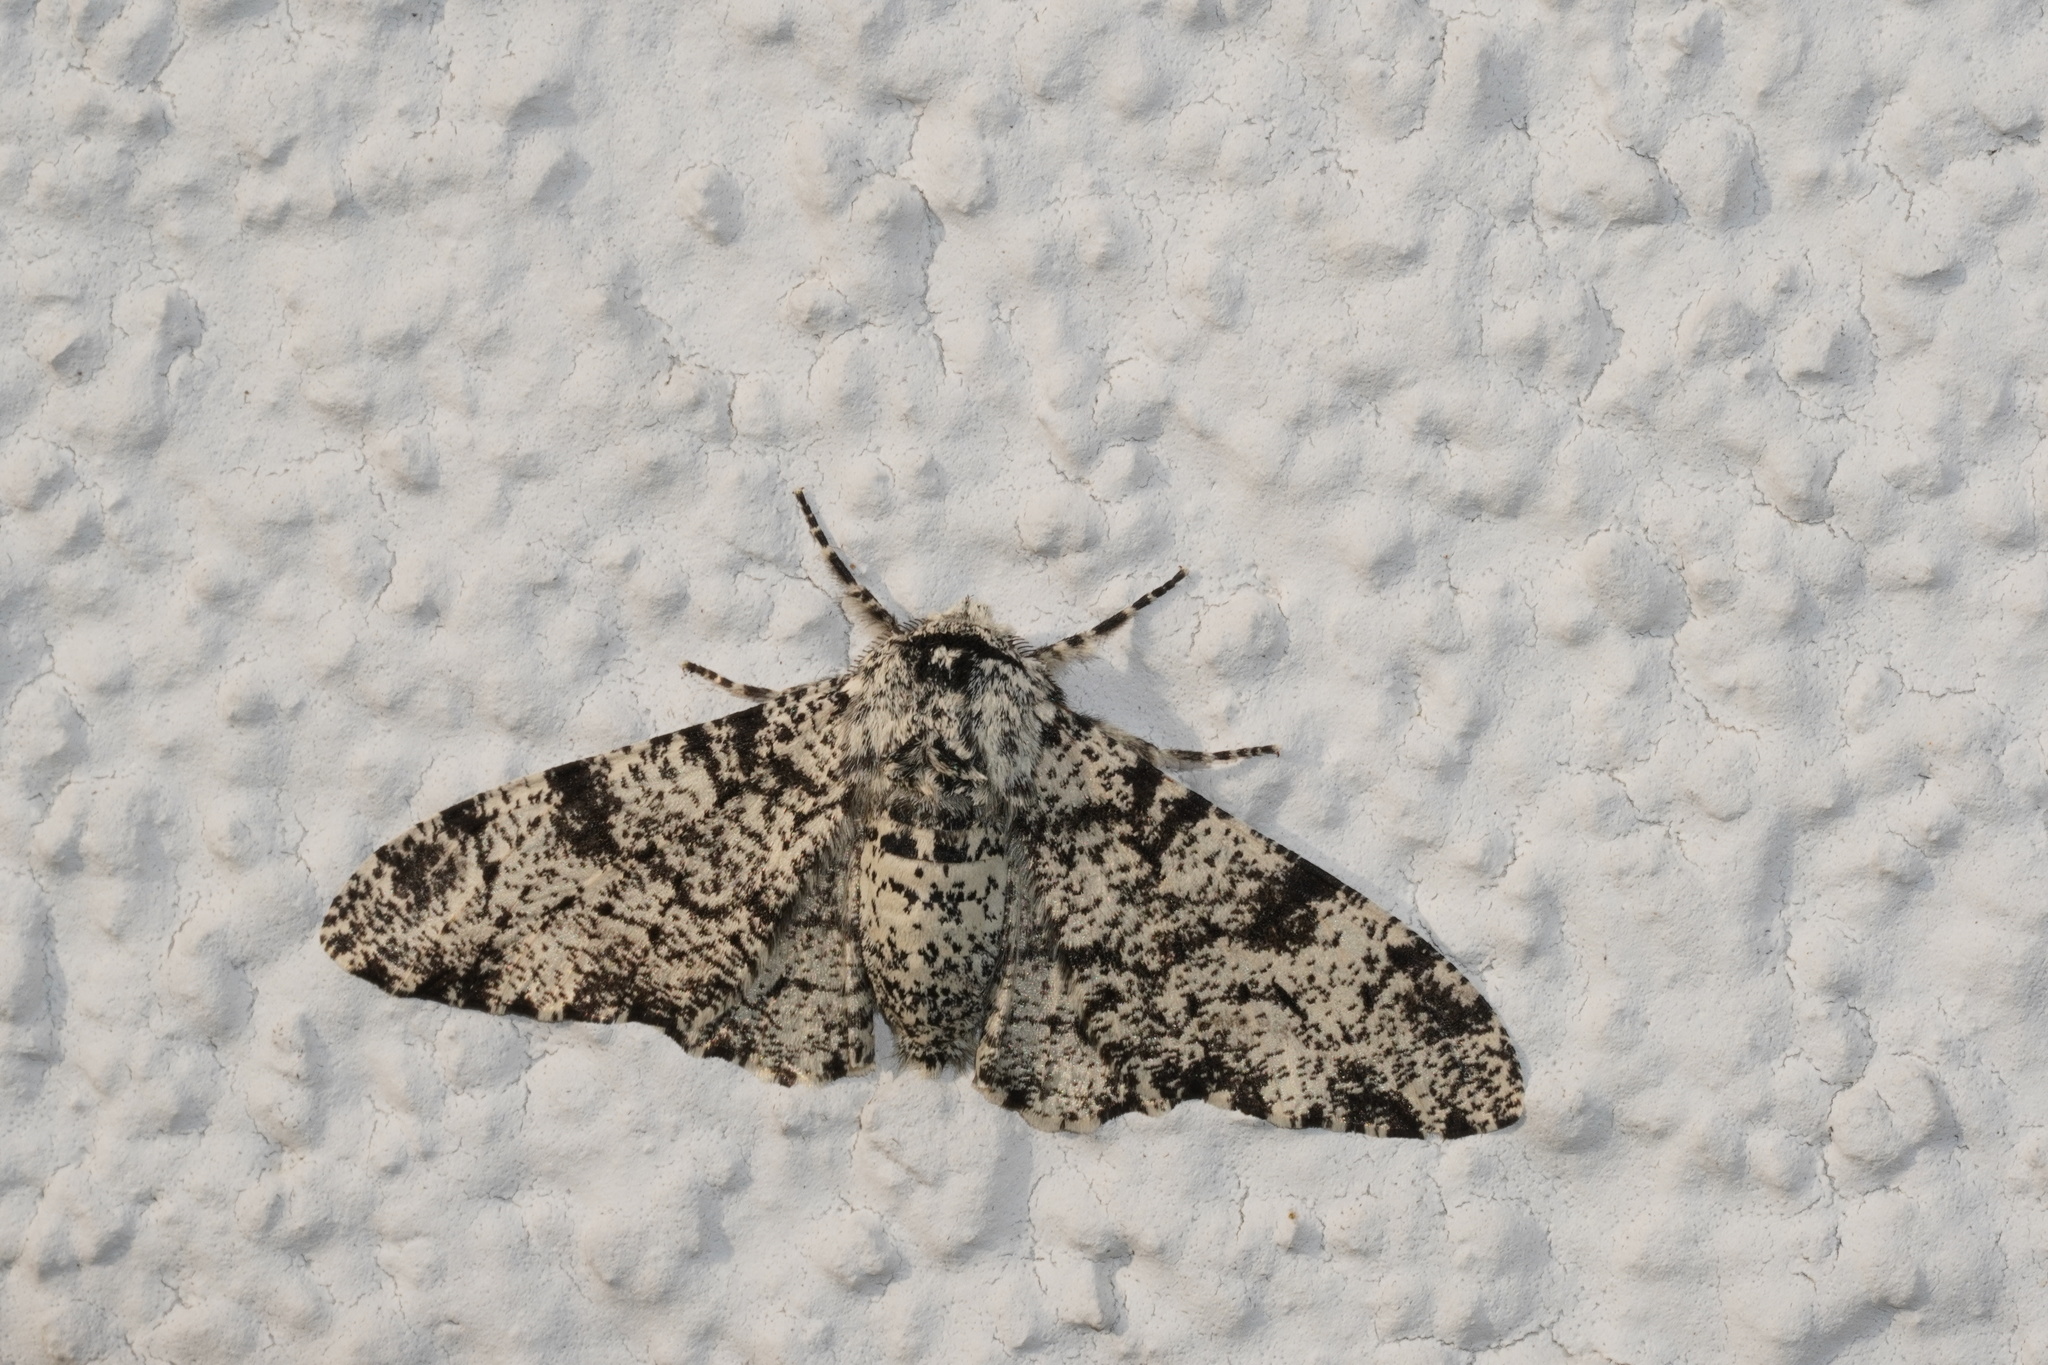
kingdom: Animalia
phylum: Arthropoda
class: Insecta
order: Lepidoptera
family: Geometridae
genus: Biston
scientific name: Biston betularia
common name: Peppered moth
